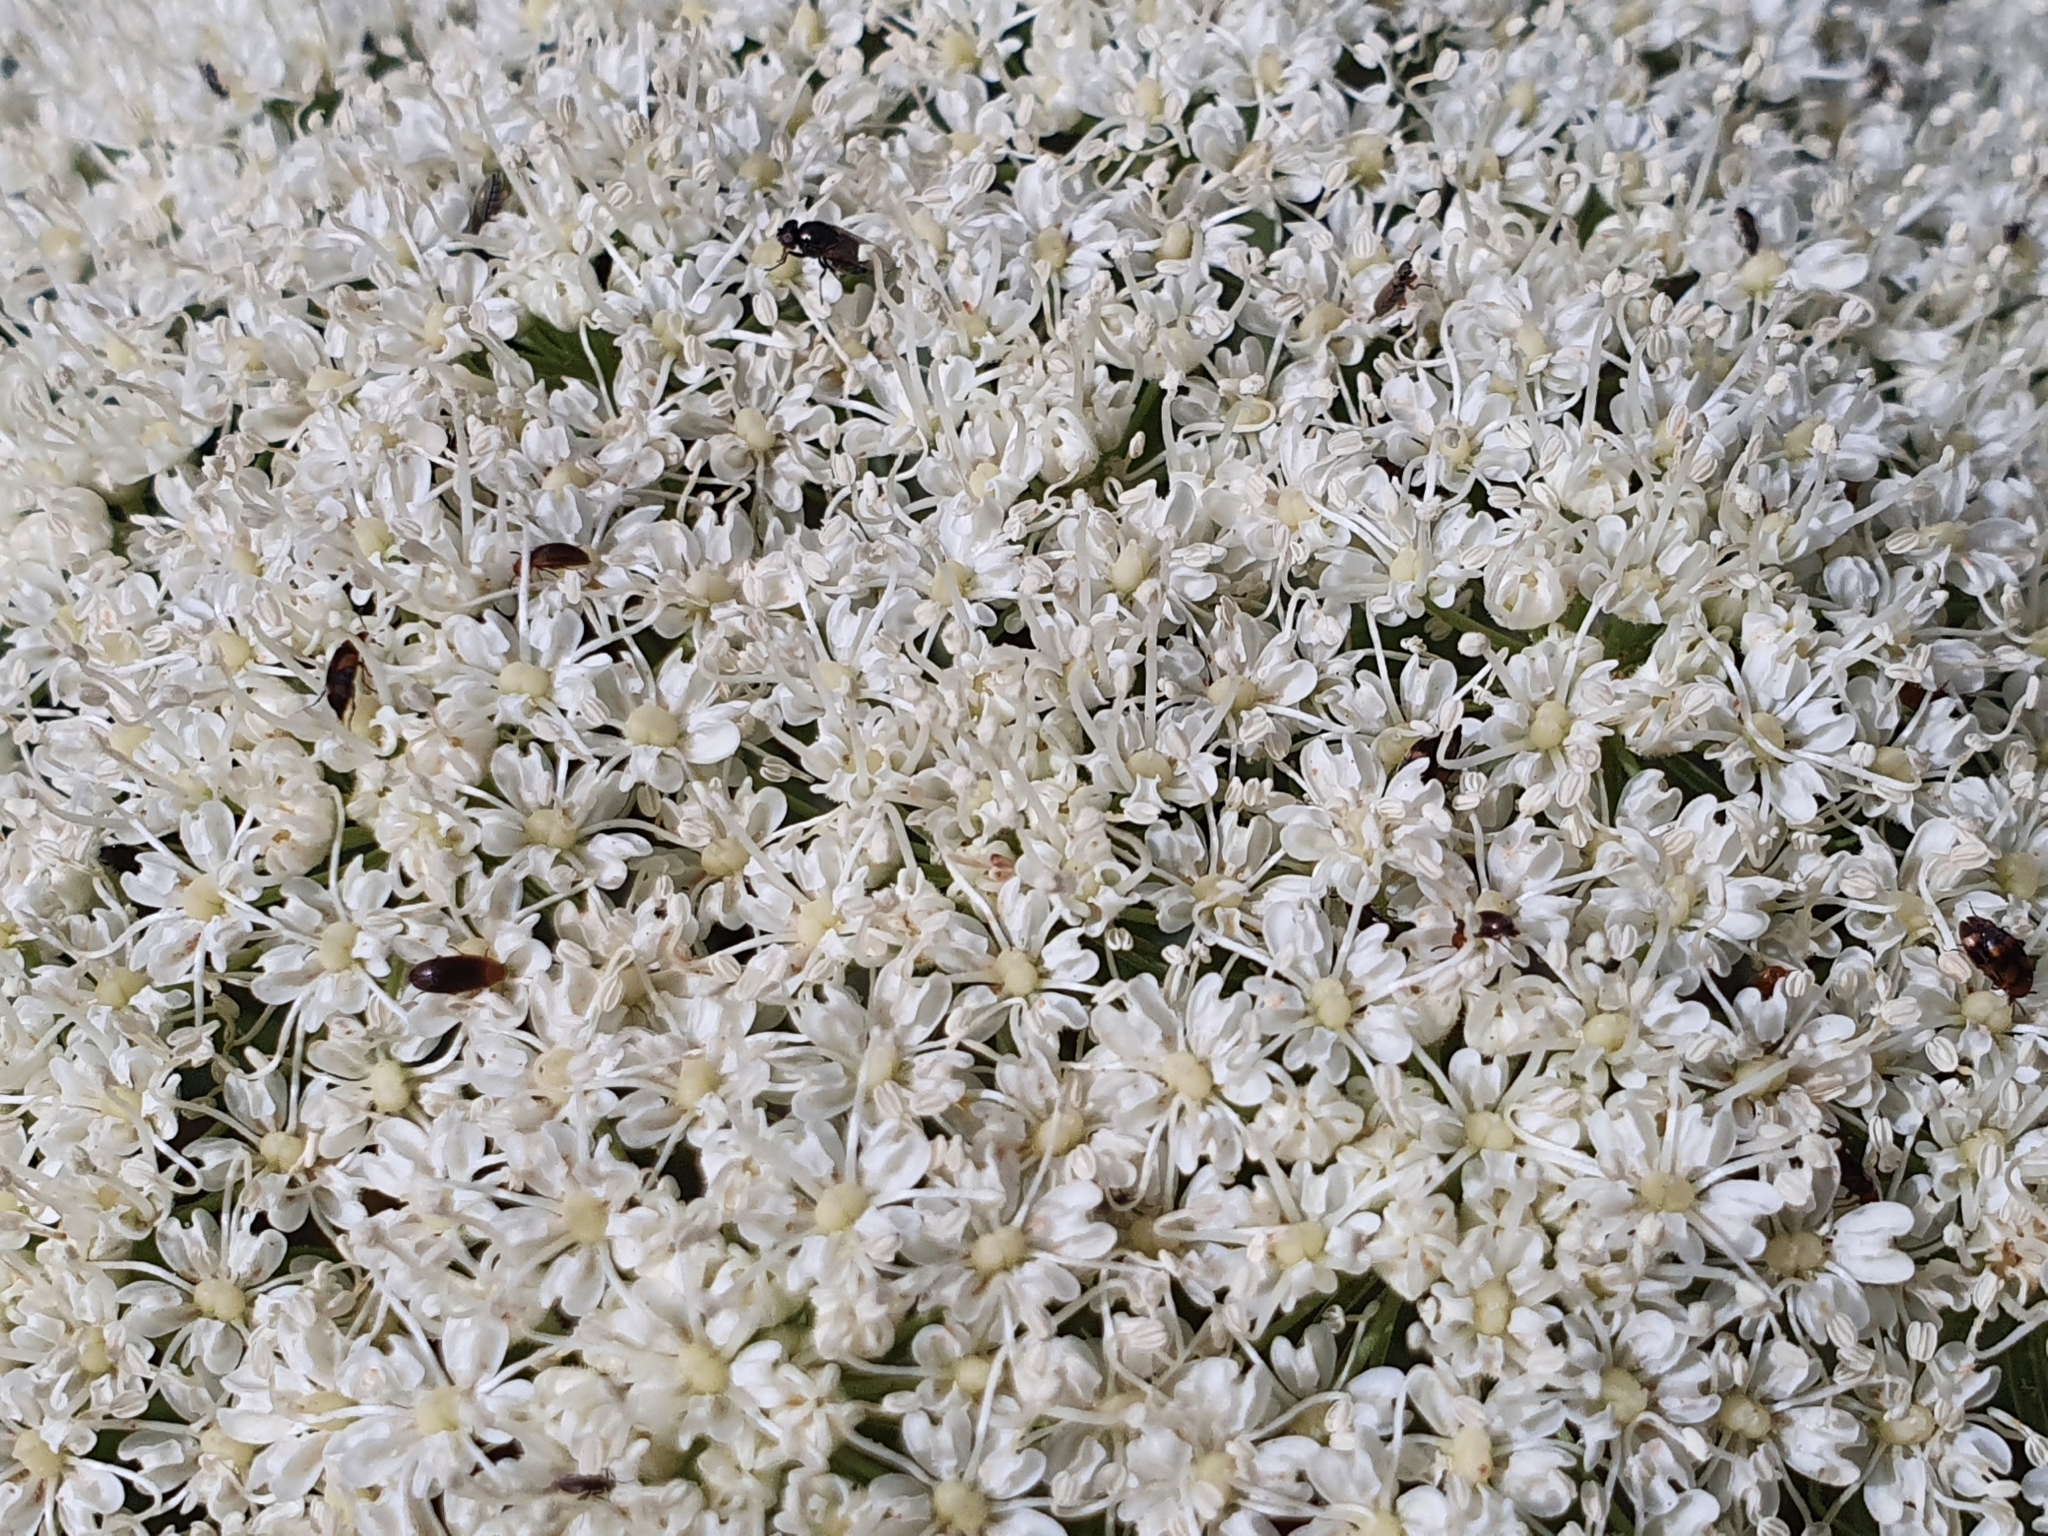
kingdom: Plantae
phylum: Tracheophyta
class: Magnoliopsida
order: Apiales
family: Apiaceae
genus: Magydaris
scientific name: Magydaris pastinacea
